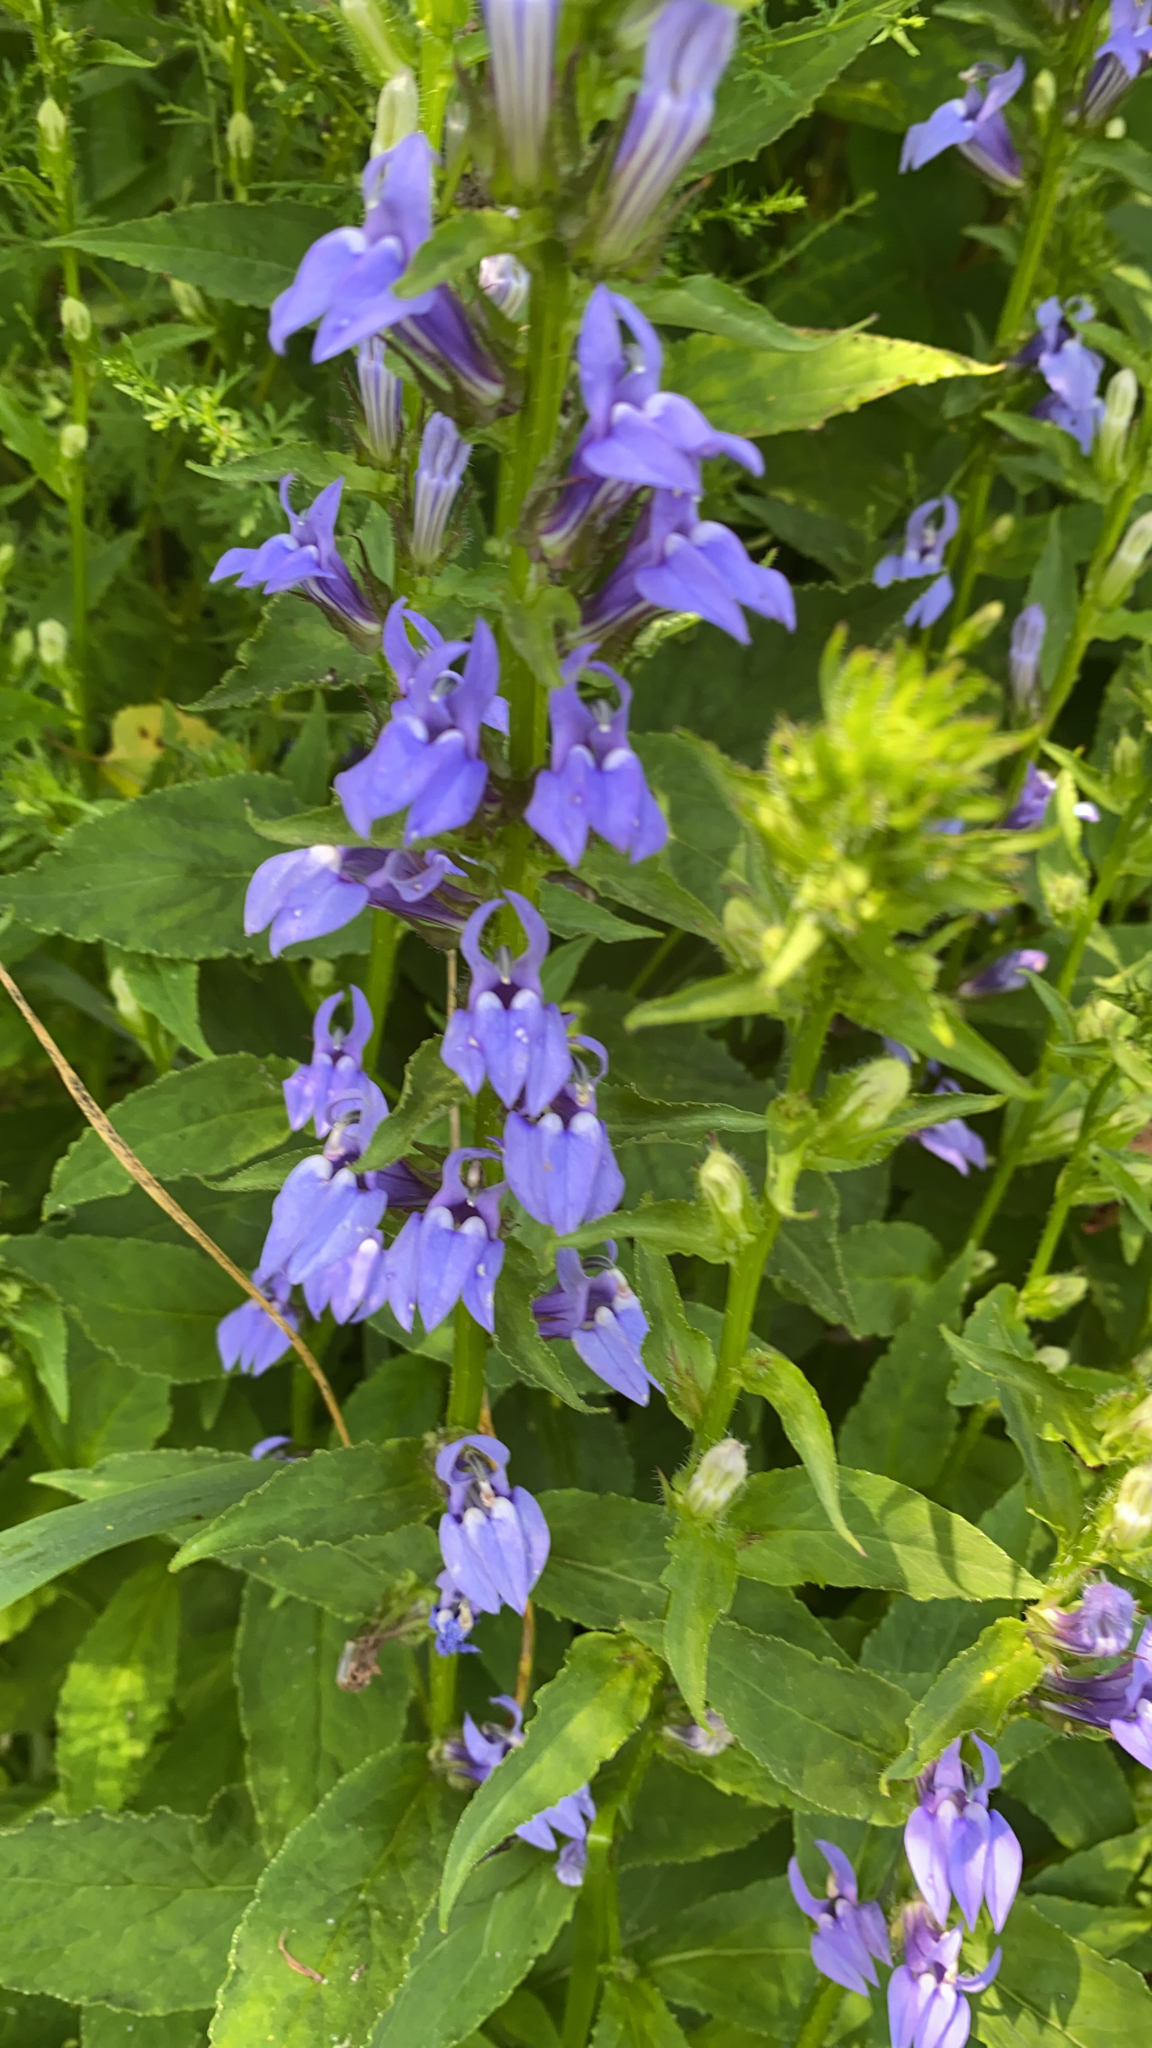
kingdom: Plantae
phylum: Tracheophyta
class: Magnoliopsida
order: Asterales
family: Campanulaceae
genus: Lobelia
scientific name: Lobelia siphilitica
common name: Great lobelia
